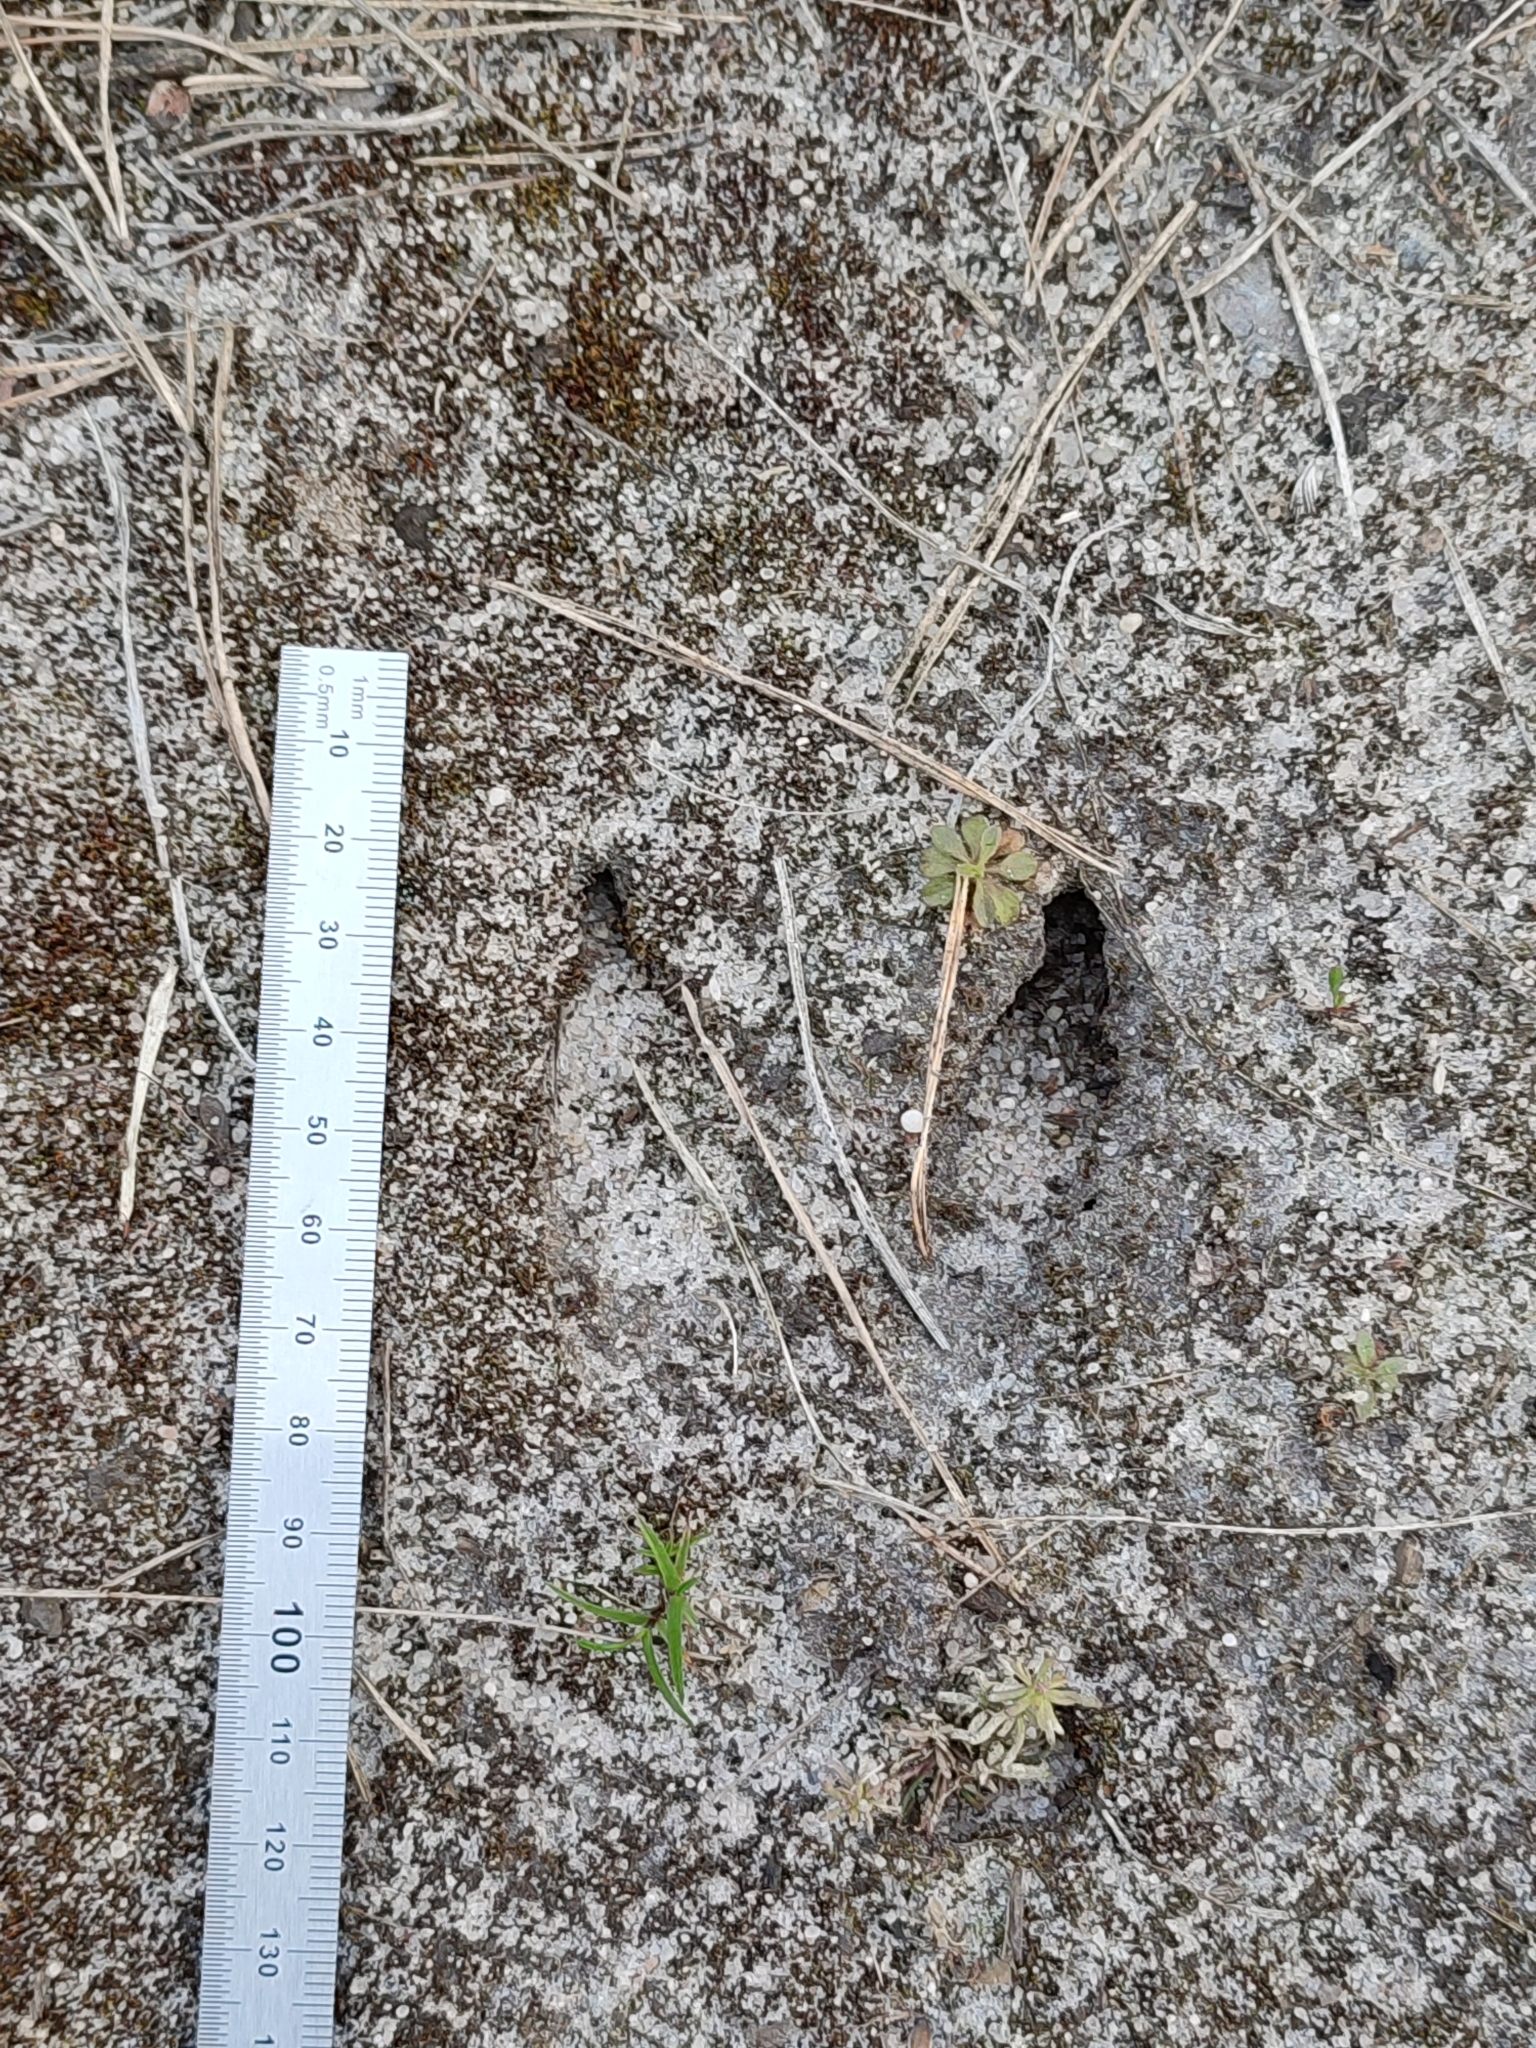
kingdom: Animalia
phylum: Chordata
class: Mammalia
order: Artiodactyla
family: Suidae
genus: Sus
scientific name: Sus scrofa
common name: Wild boar
